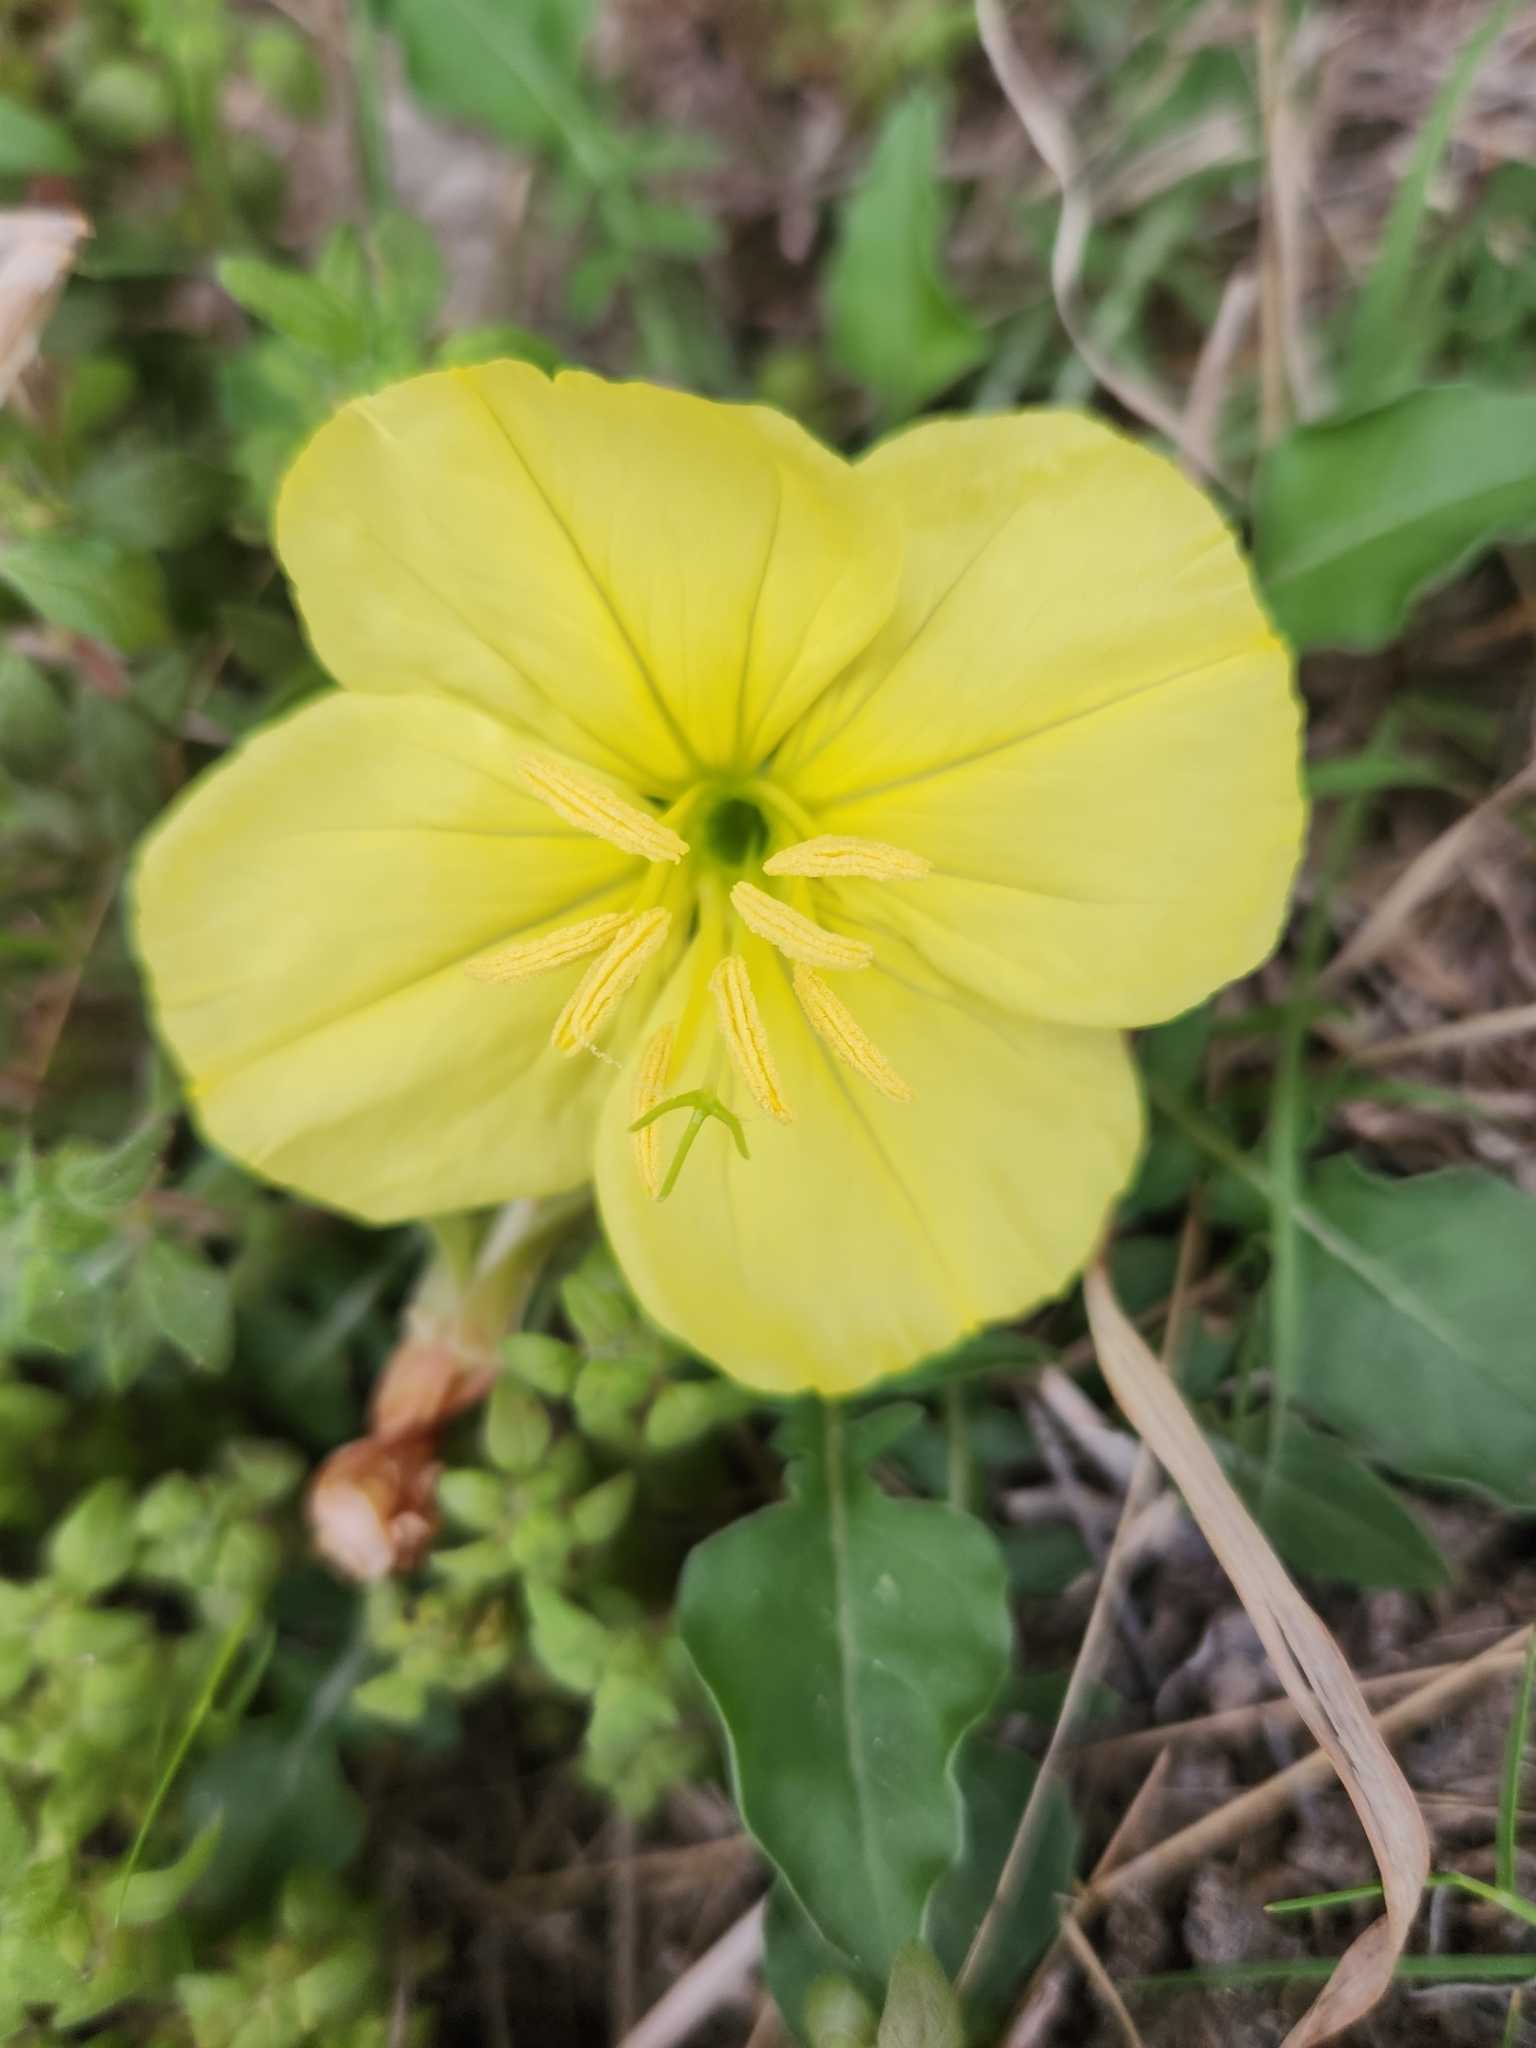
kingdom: Plantae
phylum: Tracheophyta
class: Magnoliopsida
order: Myrtales
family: Onagraceae
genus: Oenothera
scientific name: Oenothera triloba
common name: Sessile evening-primrose
